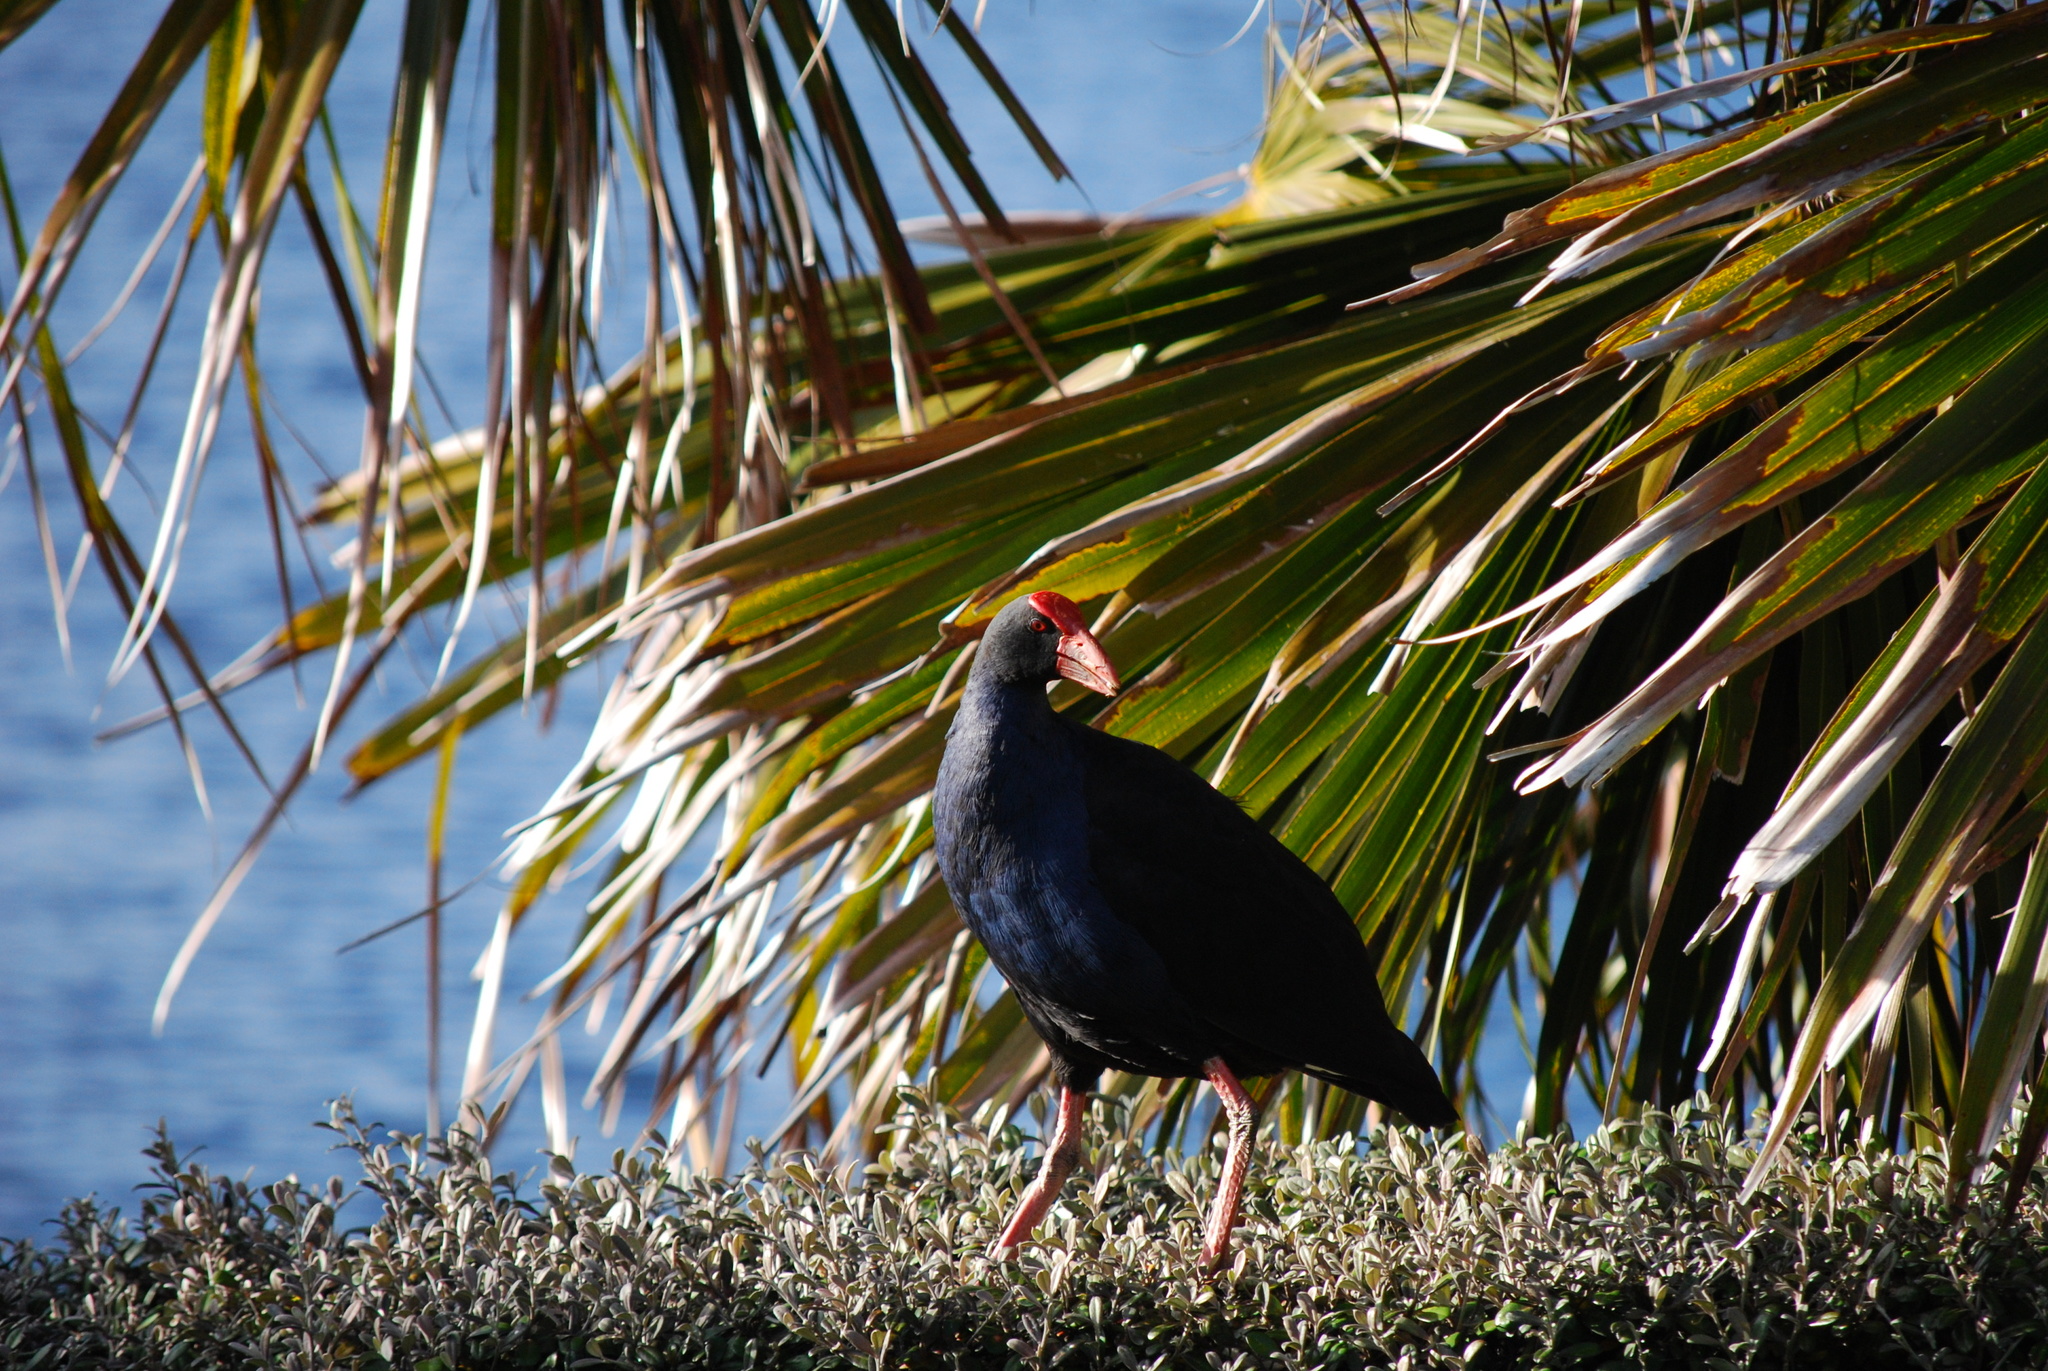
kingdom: Animalia
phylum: Chordata
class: Aves
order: Gruiformes
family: Rallidae
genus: Porphyrio
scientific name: Porphyrio melanotus
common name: Australasian swamphen
